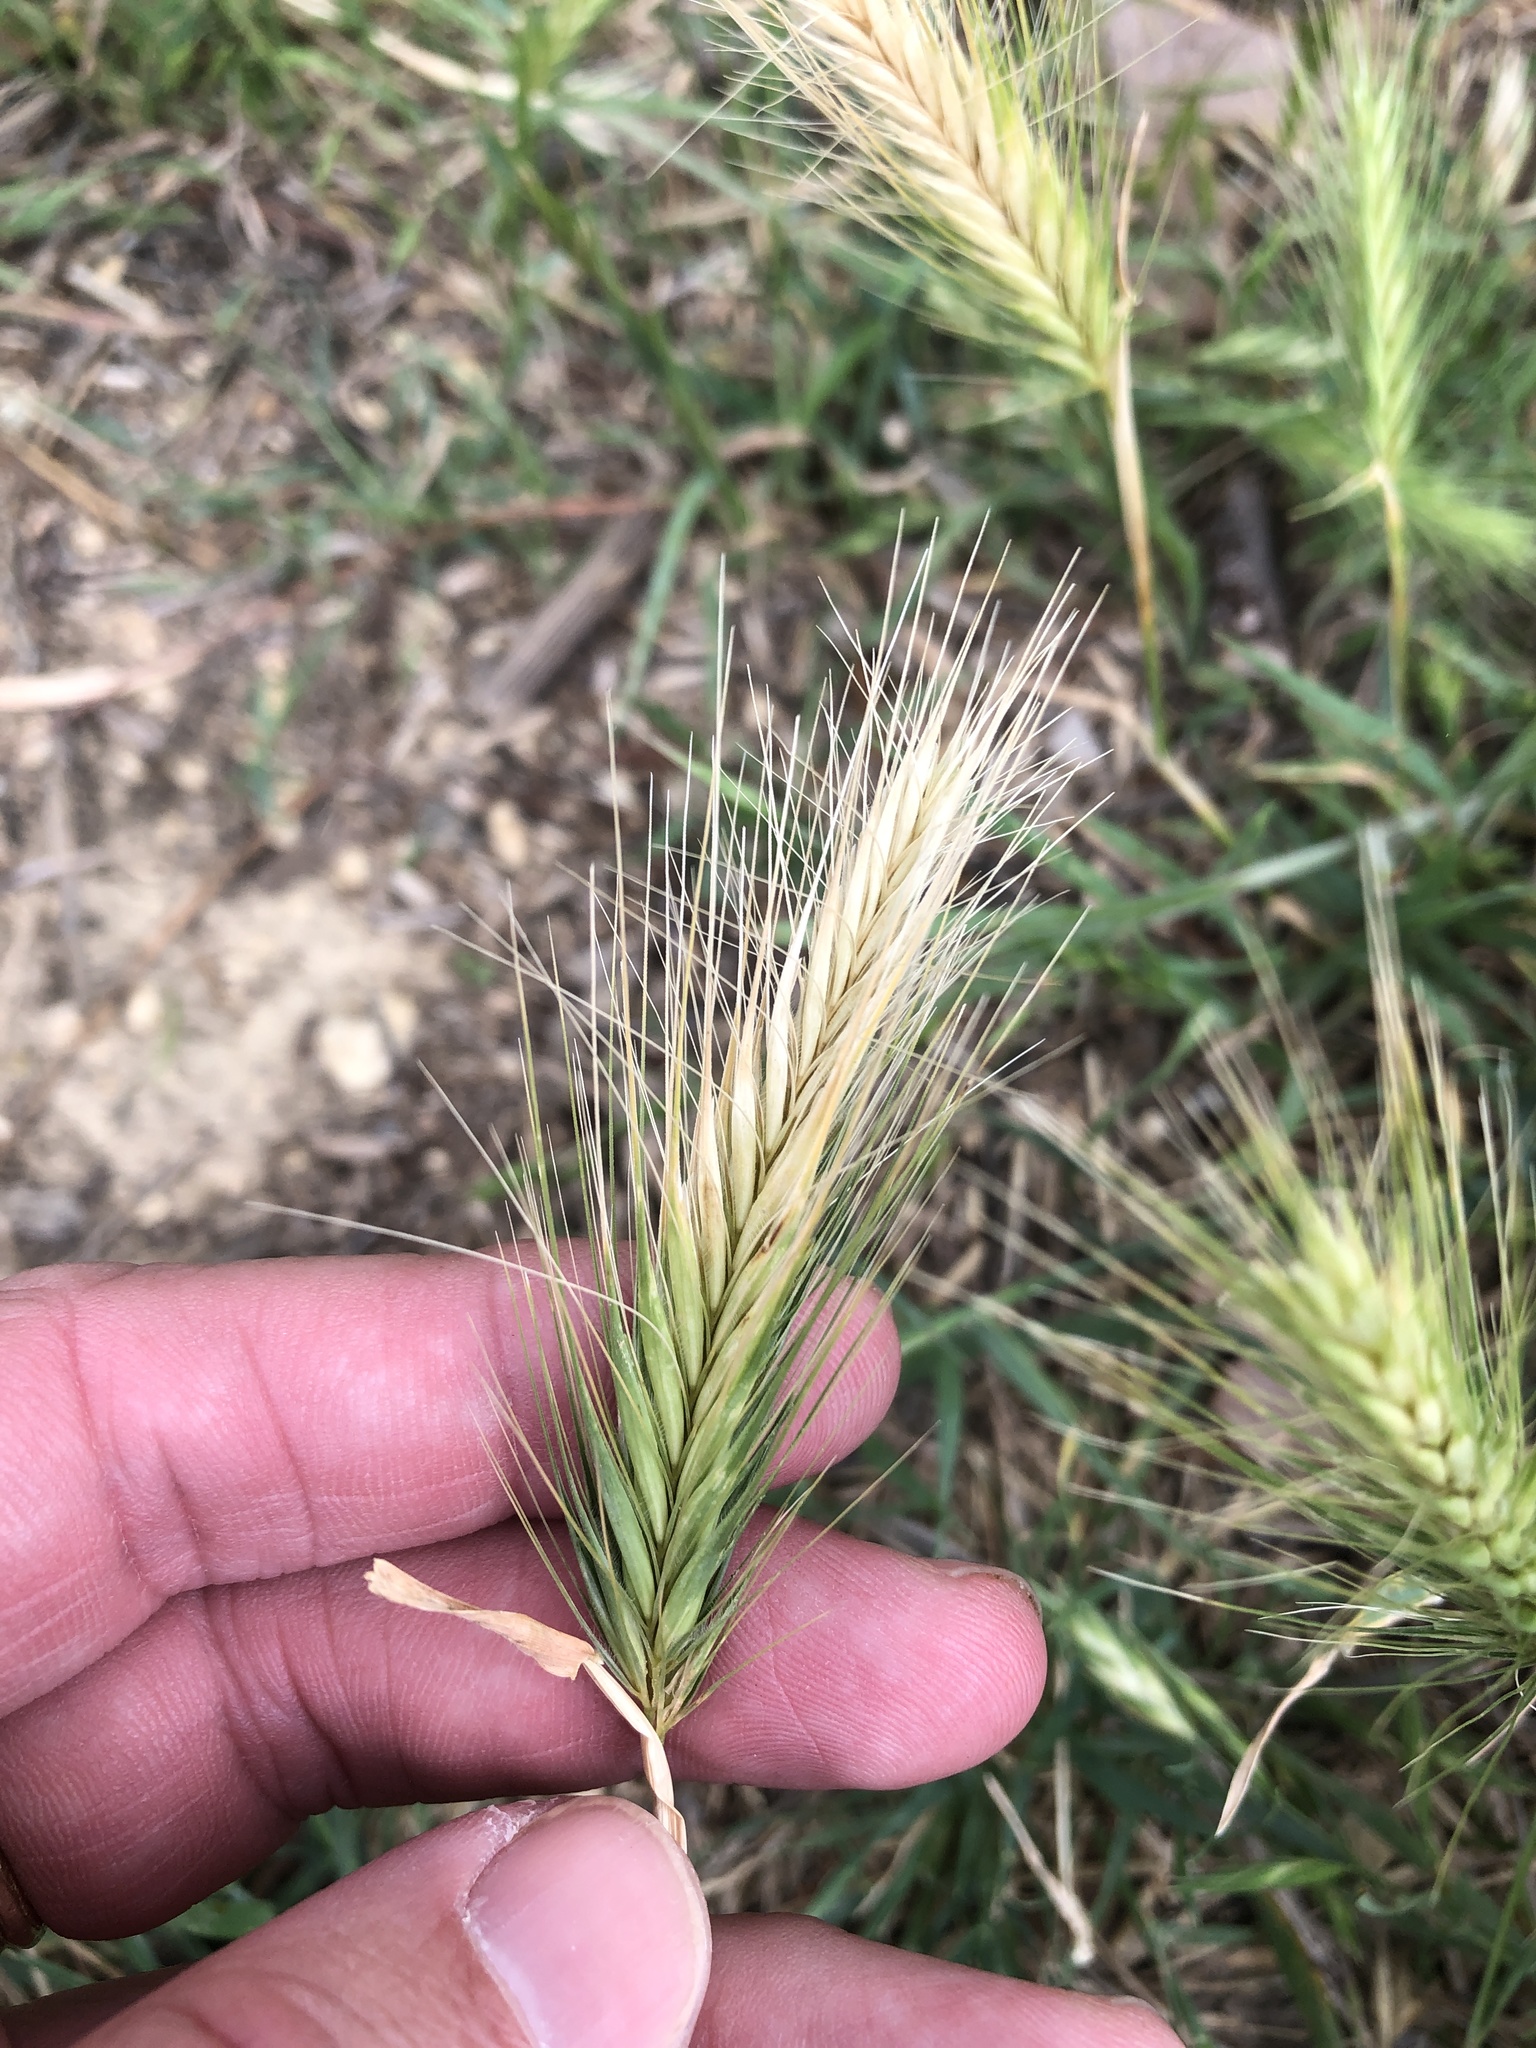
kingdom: Plantae
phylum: Tracheophyta
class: Liliopsida
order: Poales
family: Poaceae
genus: Hordeum
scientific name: Hordeum murinum
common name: Wall barley
